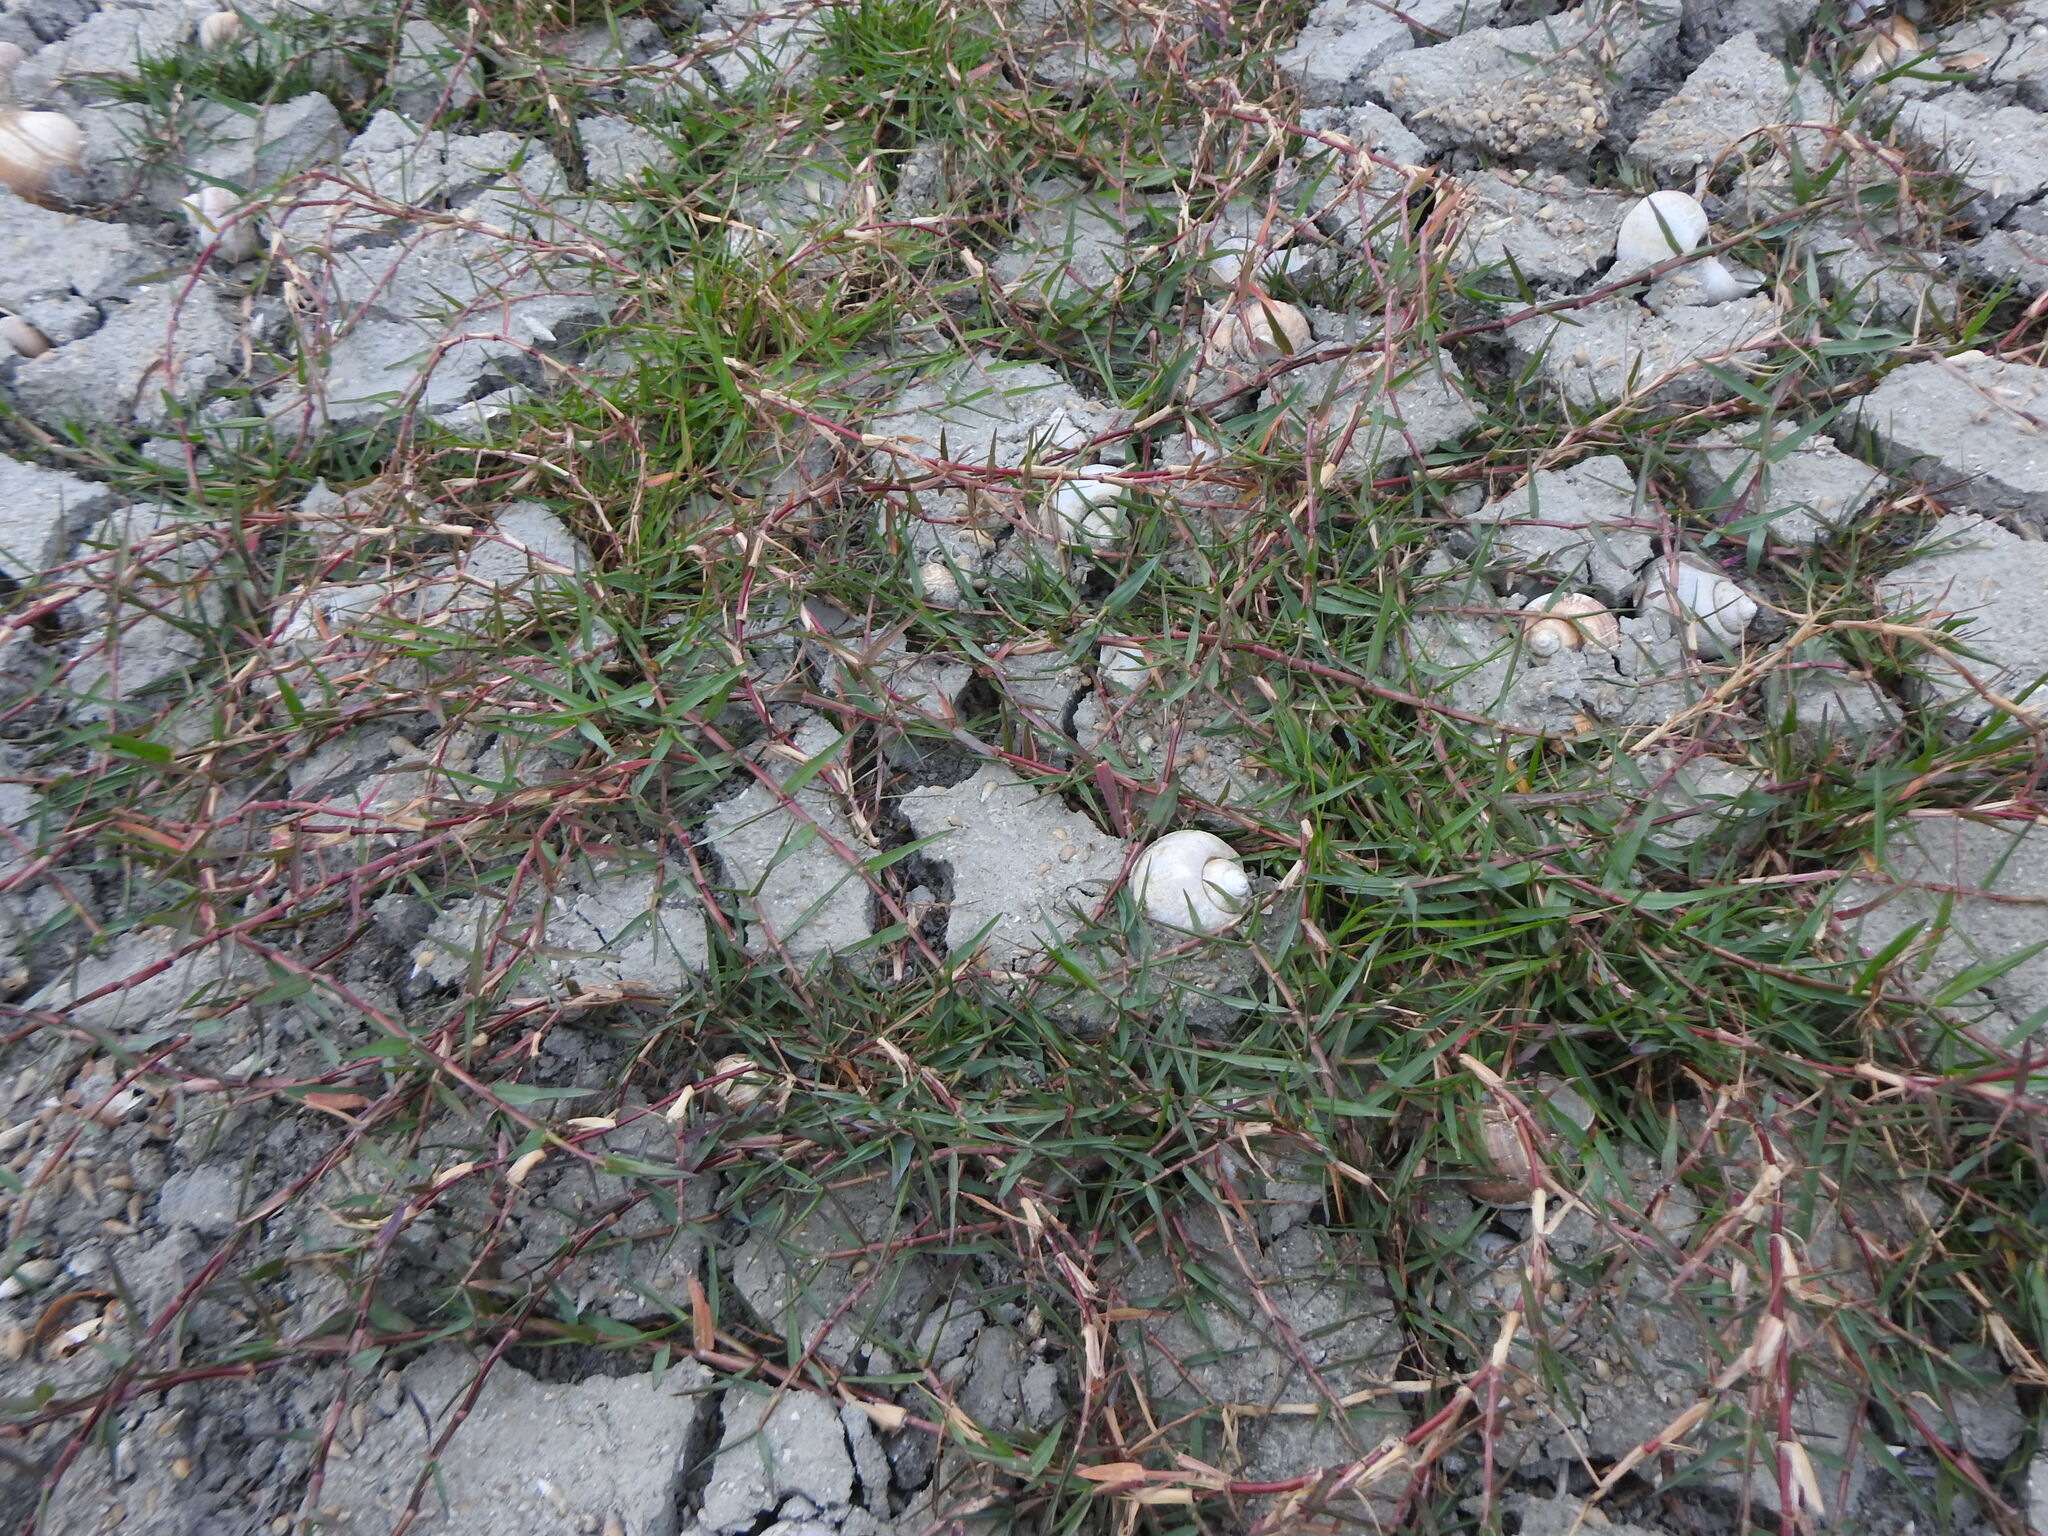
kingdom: Plantae
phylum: Tracheophyta
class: Liliopsida
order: Poales
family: Poaceae
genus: Cynodon
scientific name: Cynodon dactylon
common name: Bermuda grass
